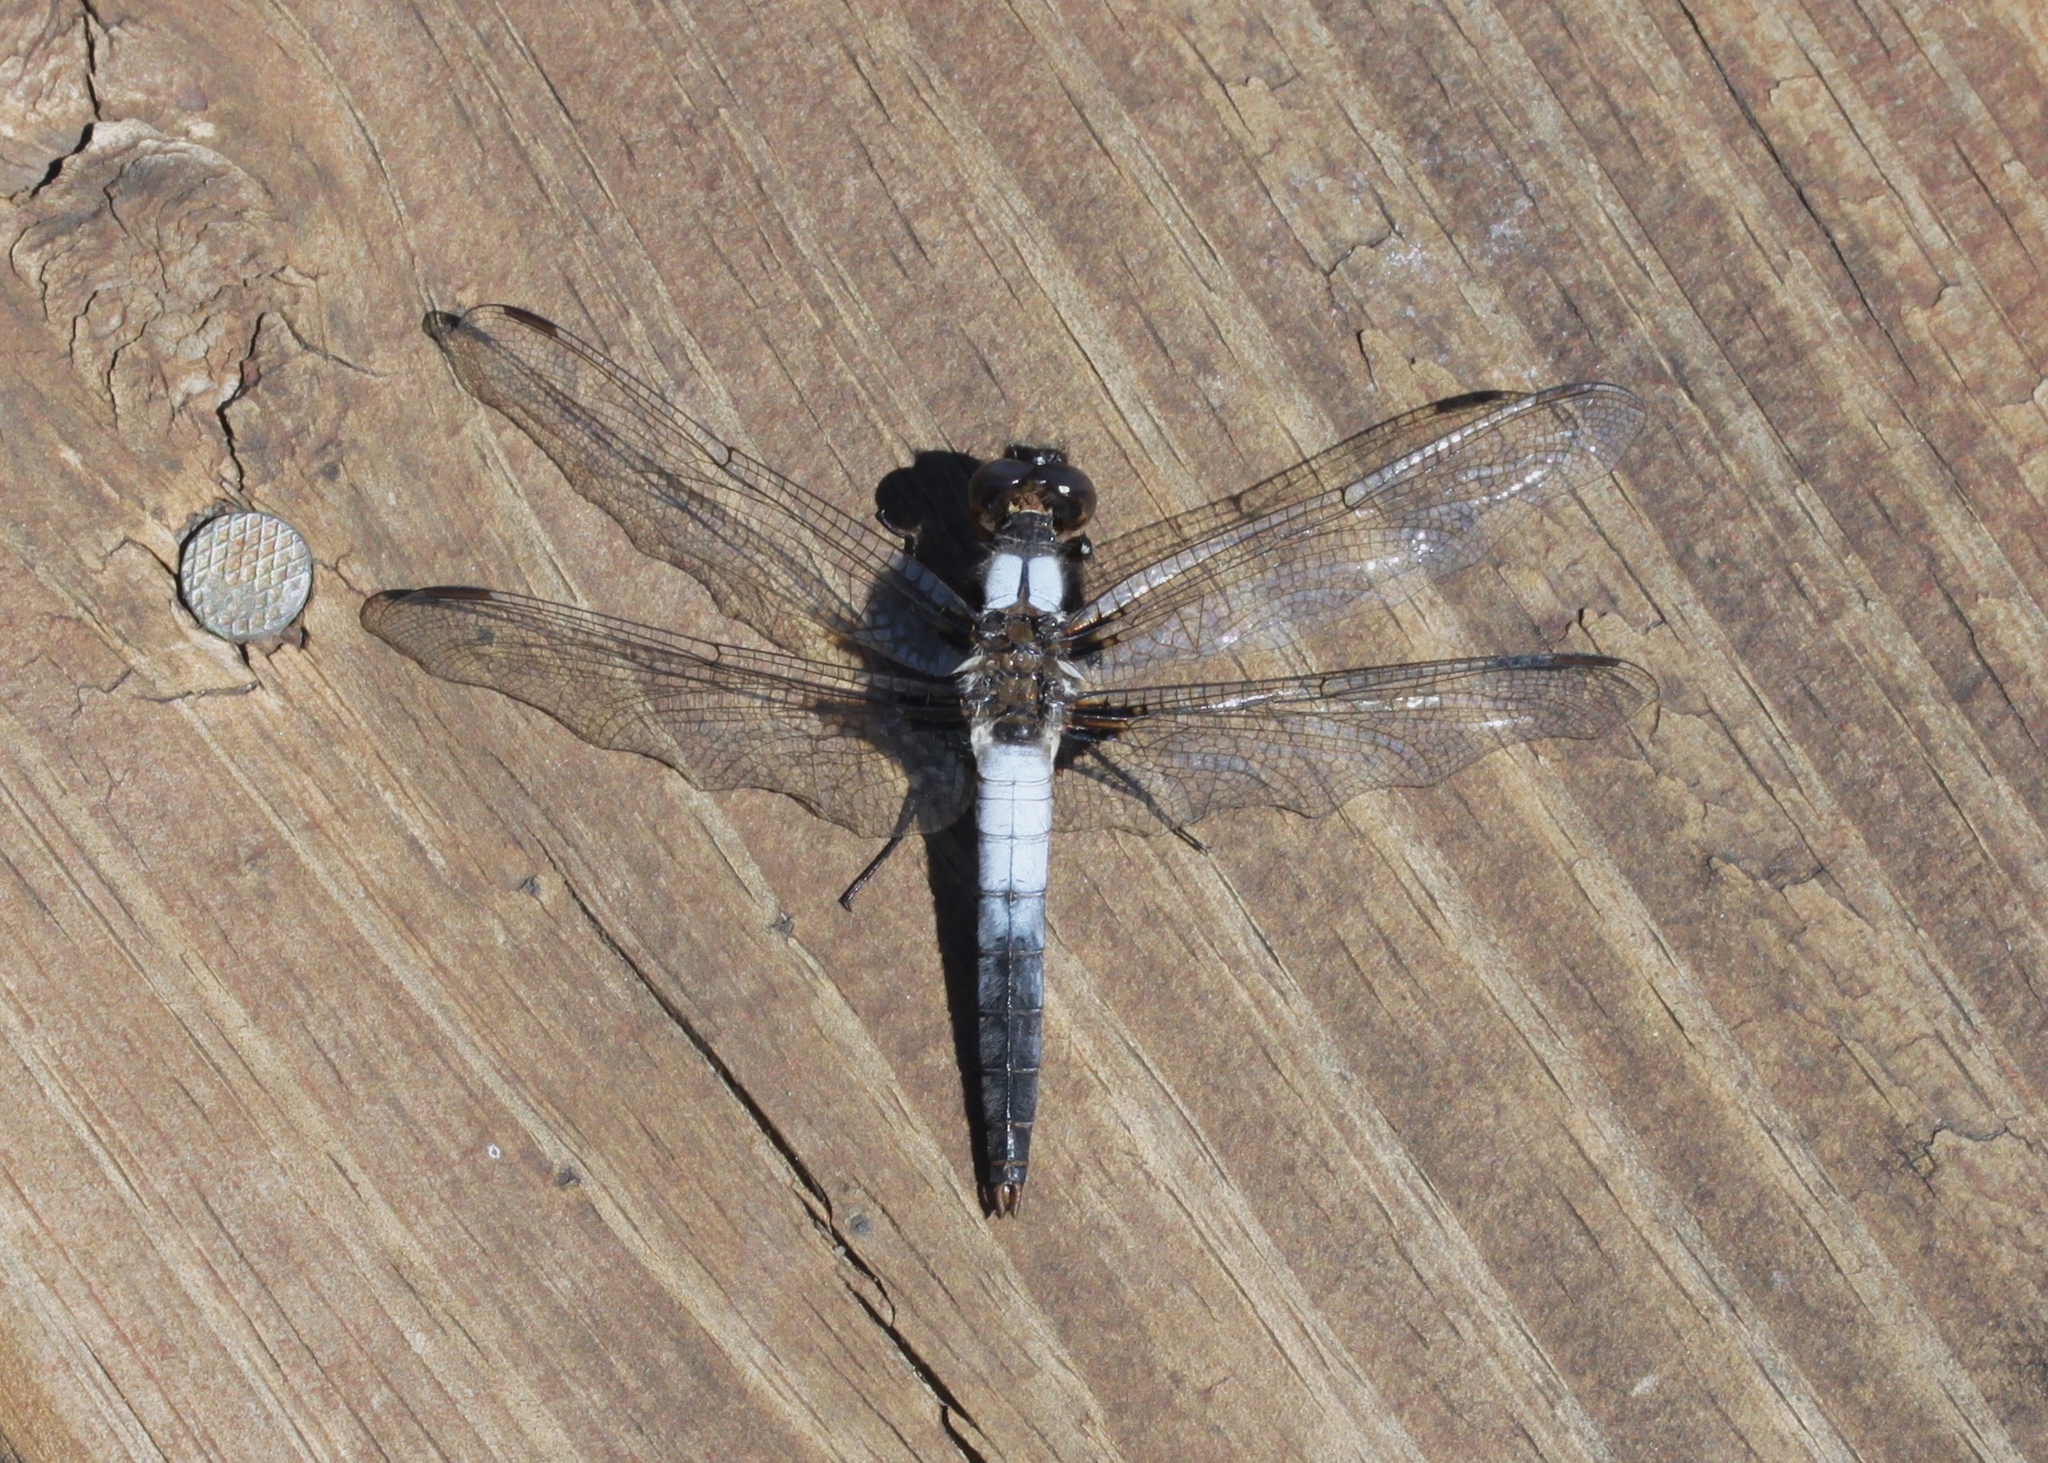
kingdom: Animalia
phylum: Arthropoda
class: Insecta
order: Odonata
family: Libellulidae
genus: Ladona
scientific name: Ladona julia
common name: Chalk-fronted corporal
